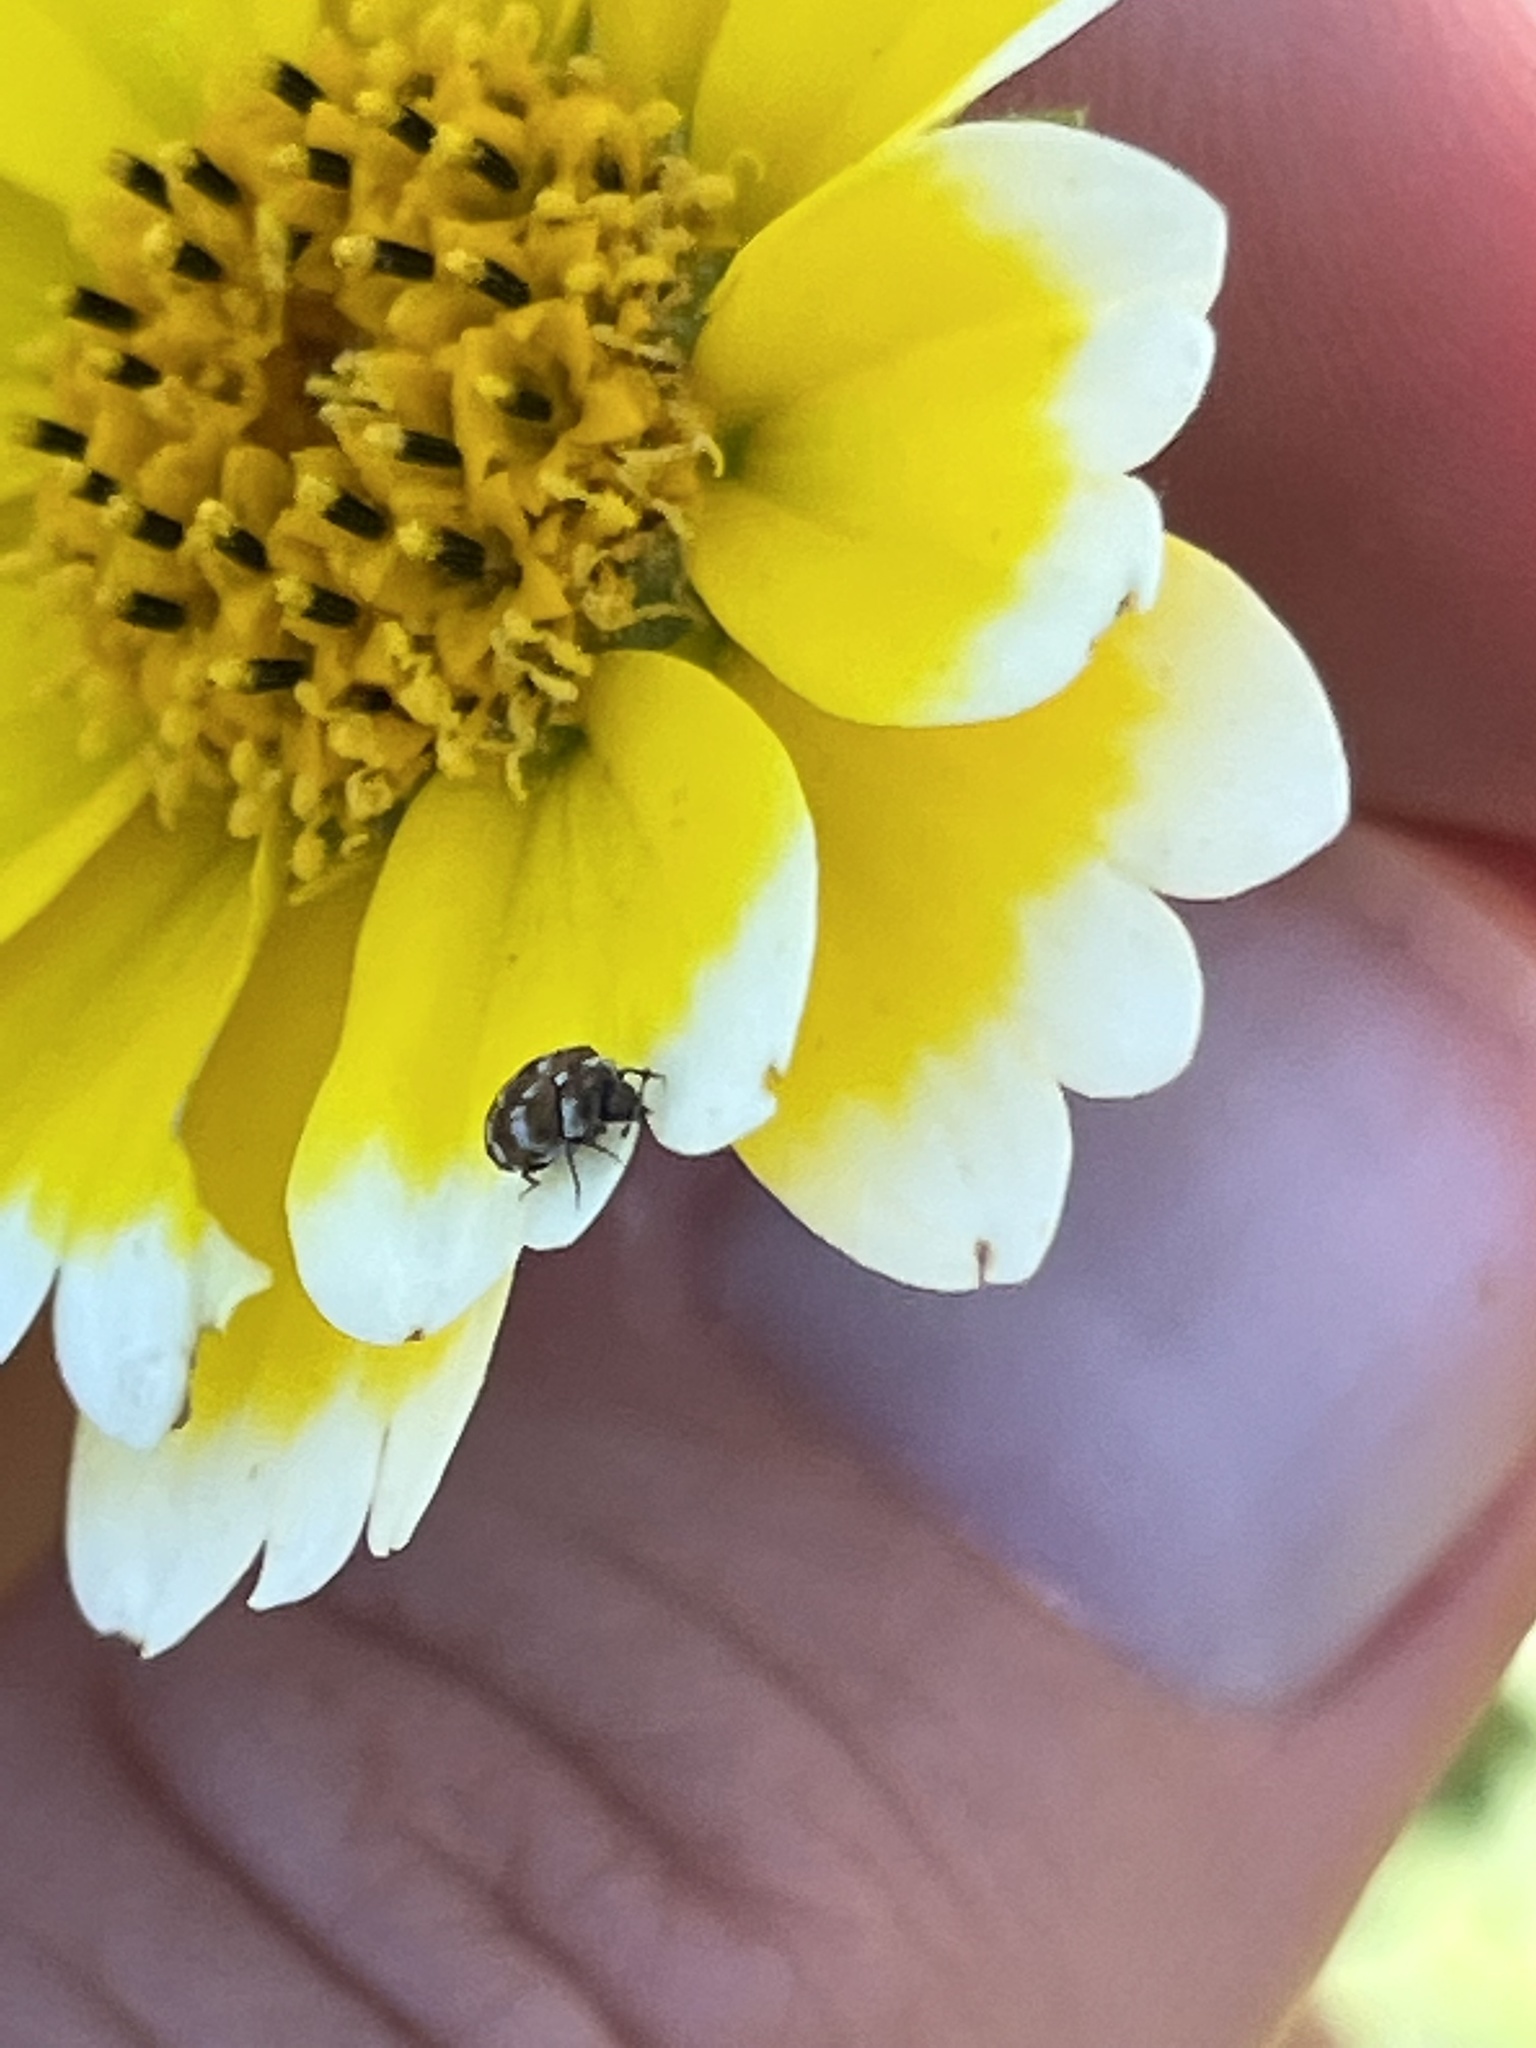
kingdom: Animalia
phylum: Arthropoda
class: Insecta
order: Coleoptera
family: Dermestidae
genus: Anthrenus
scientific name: Anthrenus verbasci
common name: Varied carpet beetle
